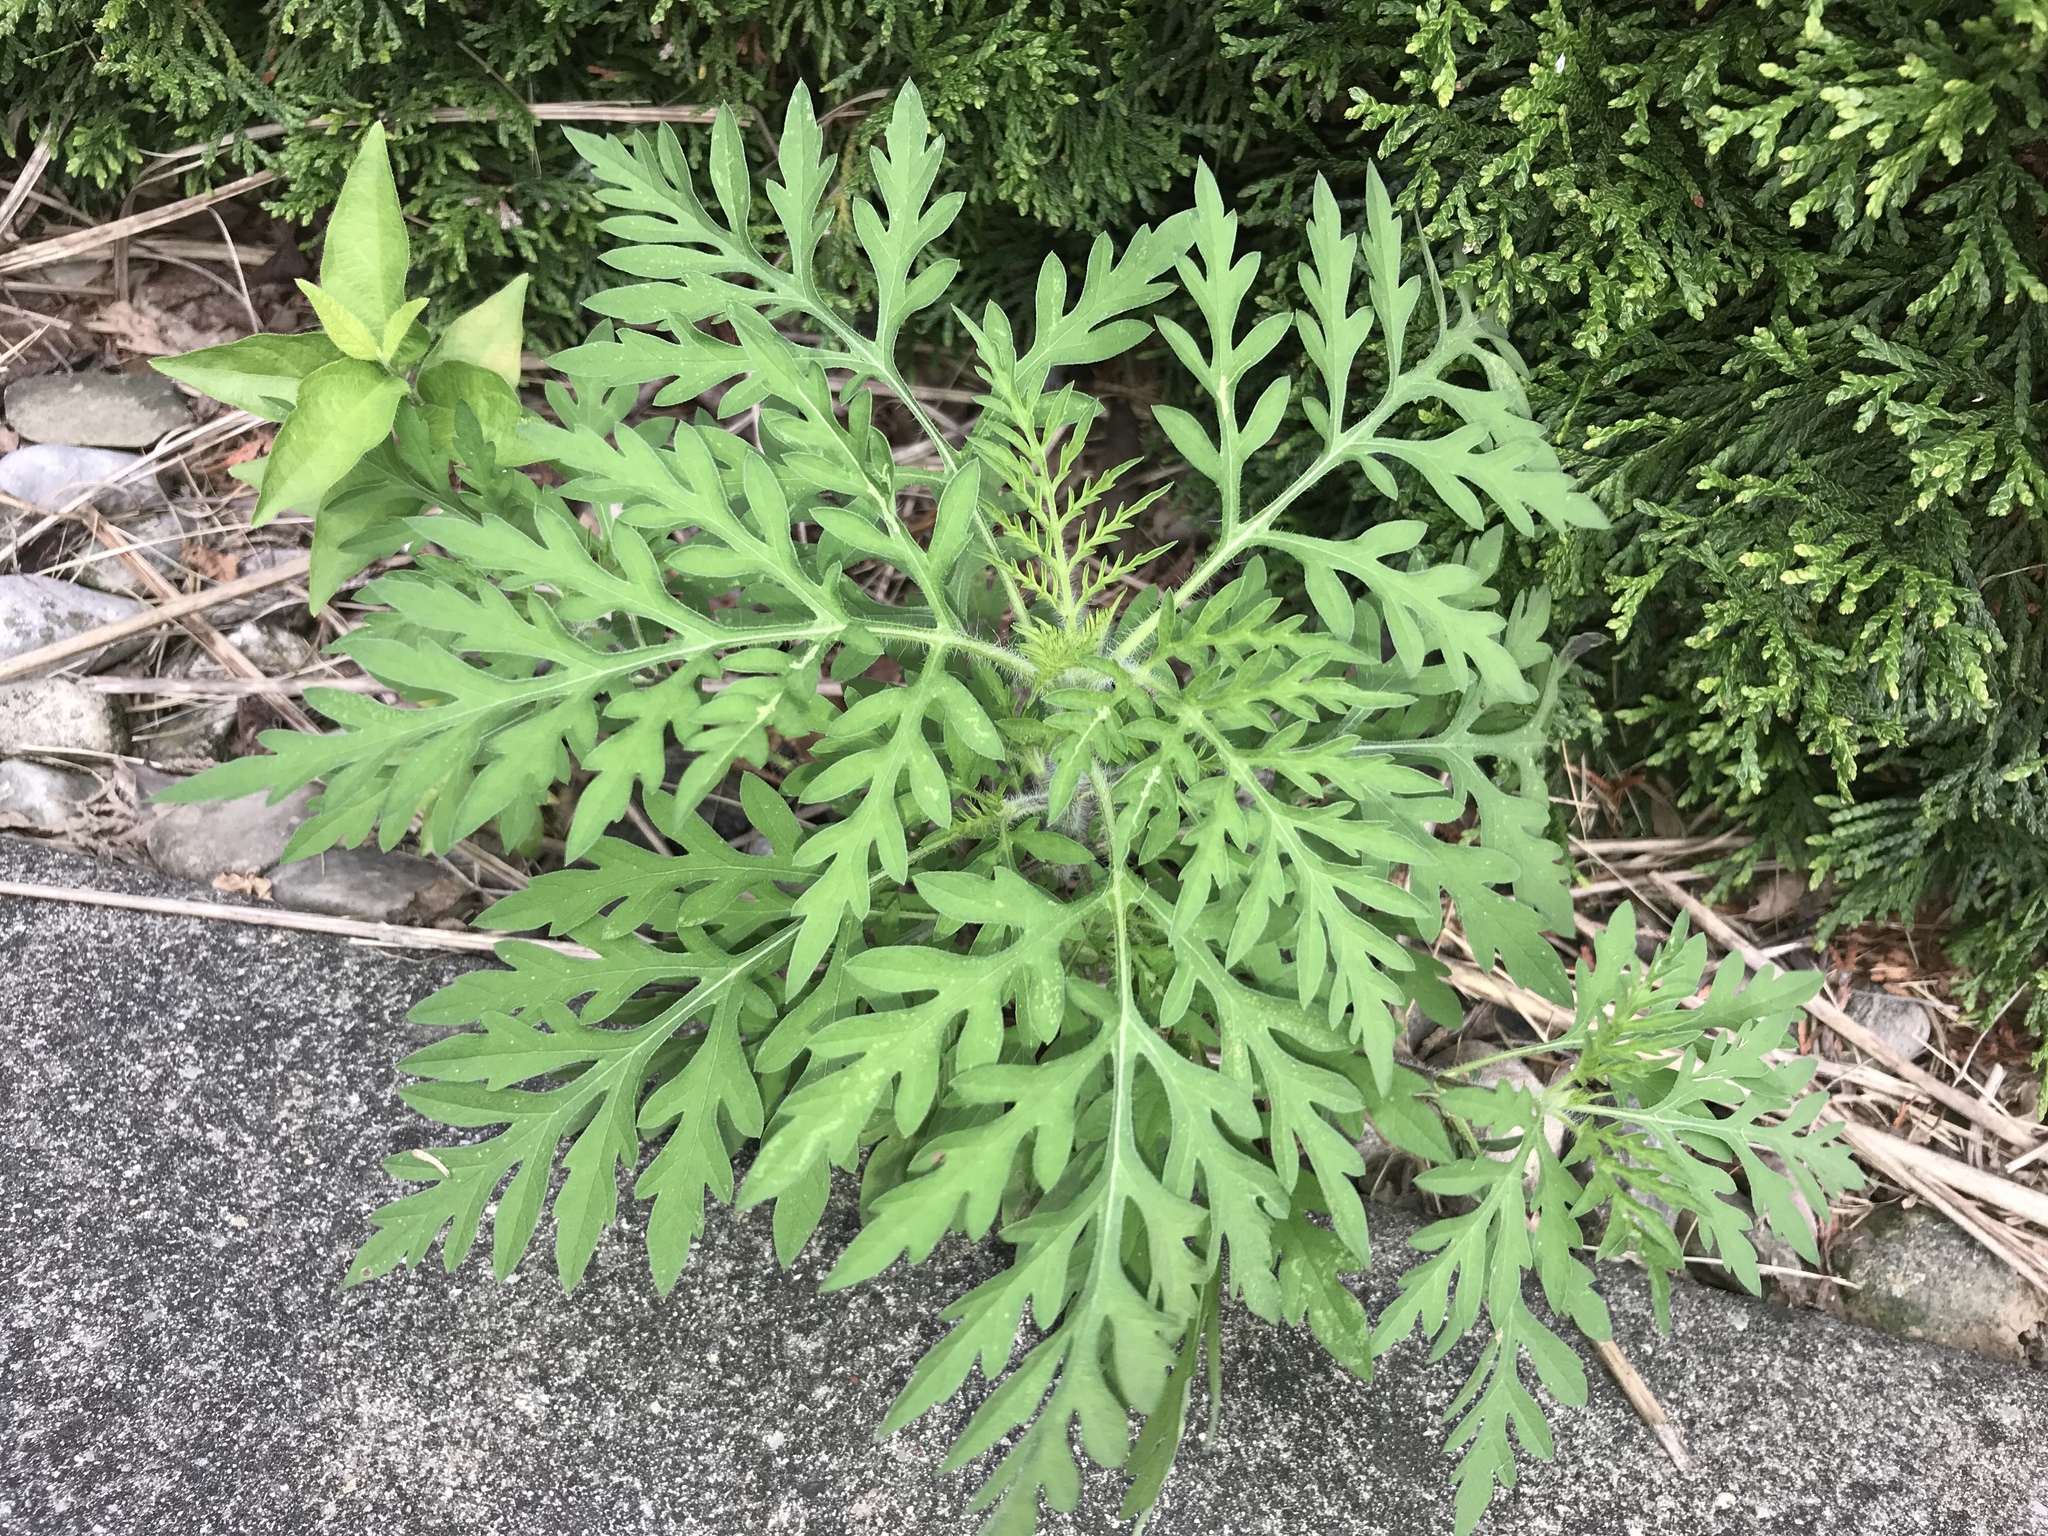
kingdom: Plantae
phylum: Tracheophyta
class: Magnoliopsida
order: Asterales
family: Asteraceae
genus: Ambrosia
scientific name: Ambrosia artemisiifolia
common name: Annual ragweed
